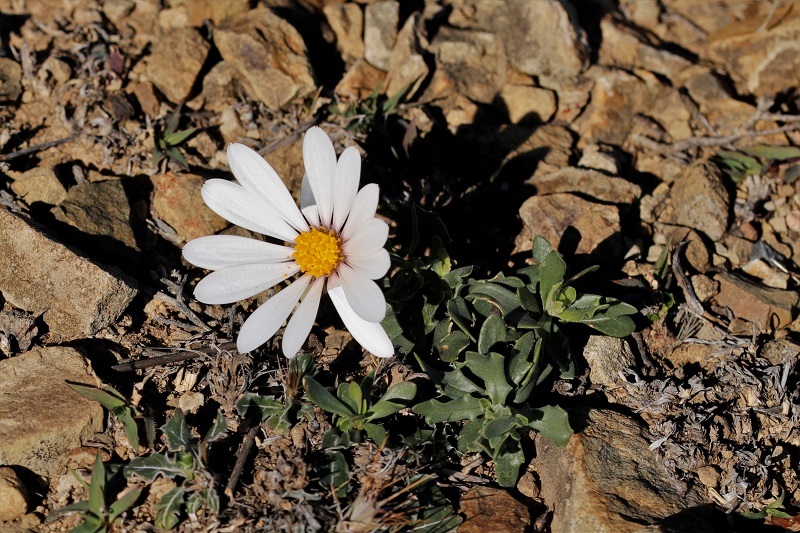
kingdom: Plantae
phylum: Tracheophyta
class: Magnoliopsida
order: Asterales
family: Asteraceae
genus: Dimorphotheca
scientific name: Dimorphotheca cuneata
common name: Daisy
